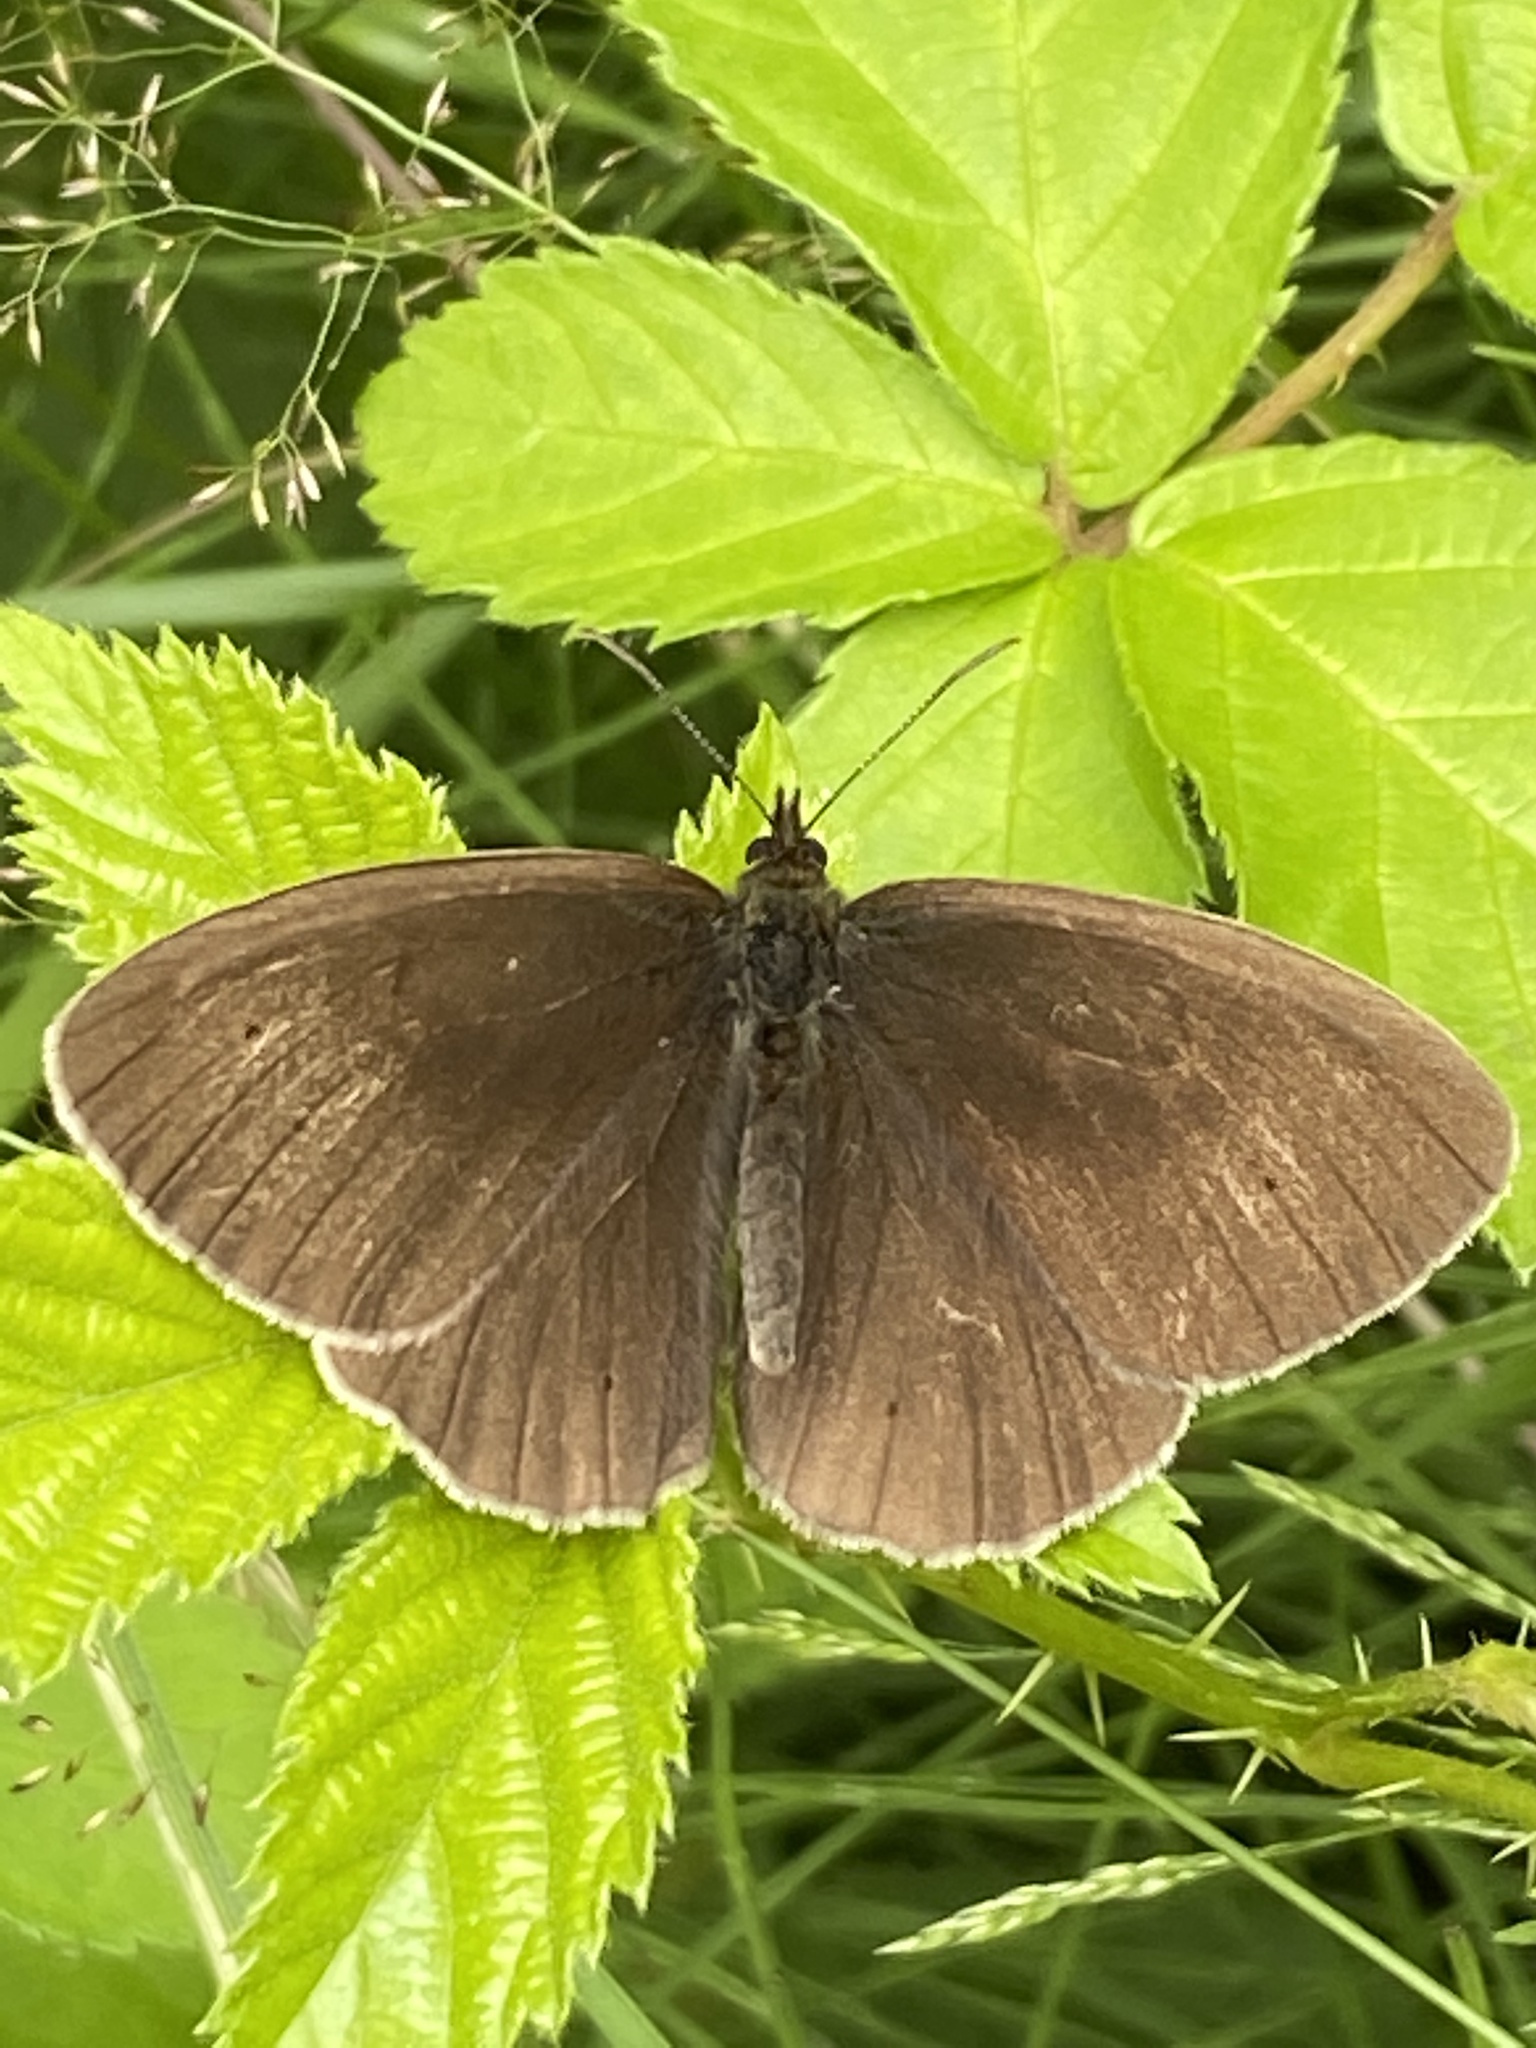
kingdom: Animalia
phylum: Arthropoda
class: Insecta
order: Lepidoptera
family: Nymphalidae
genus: Aphantopus
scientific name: Aphantopus hyperantus
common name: Ringlet
